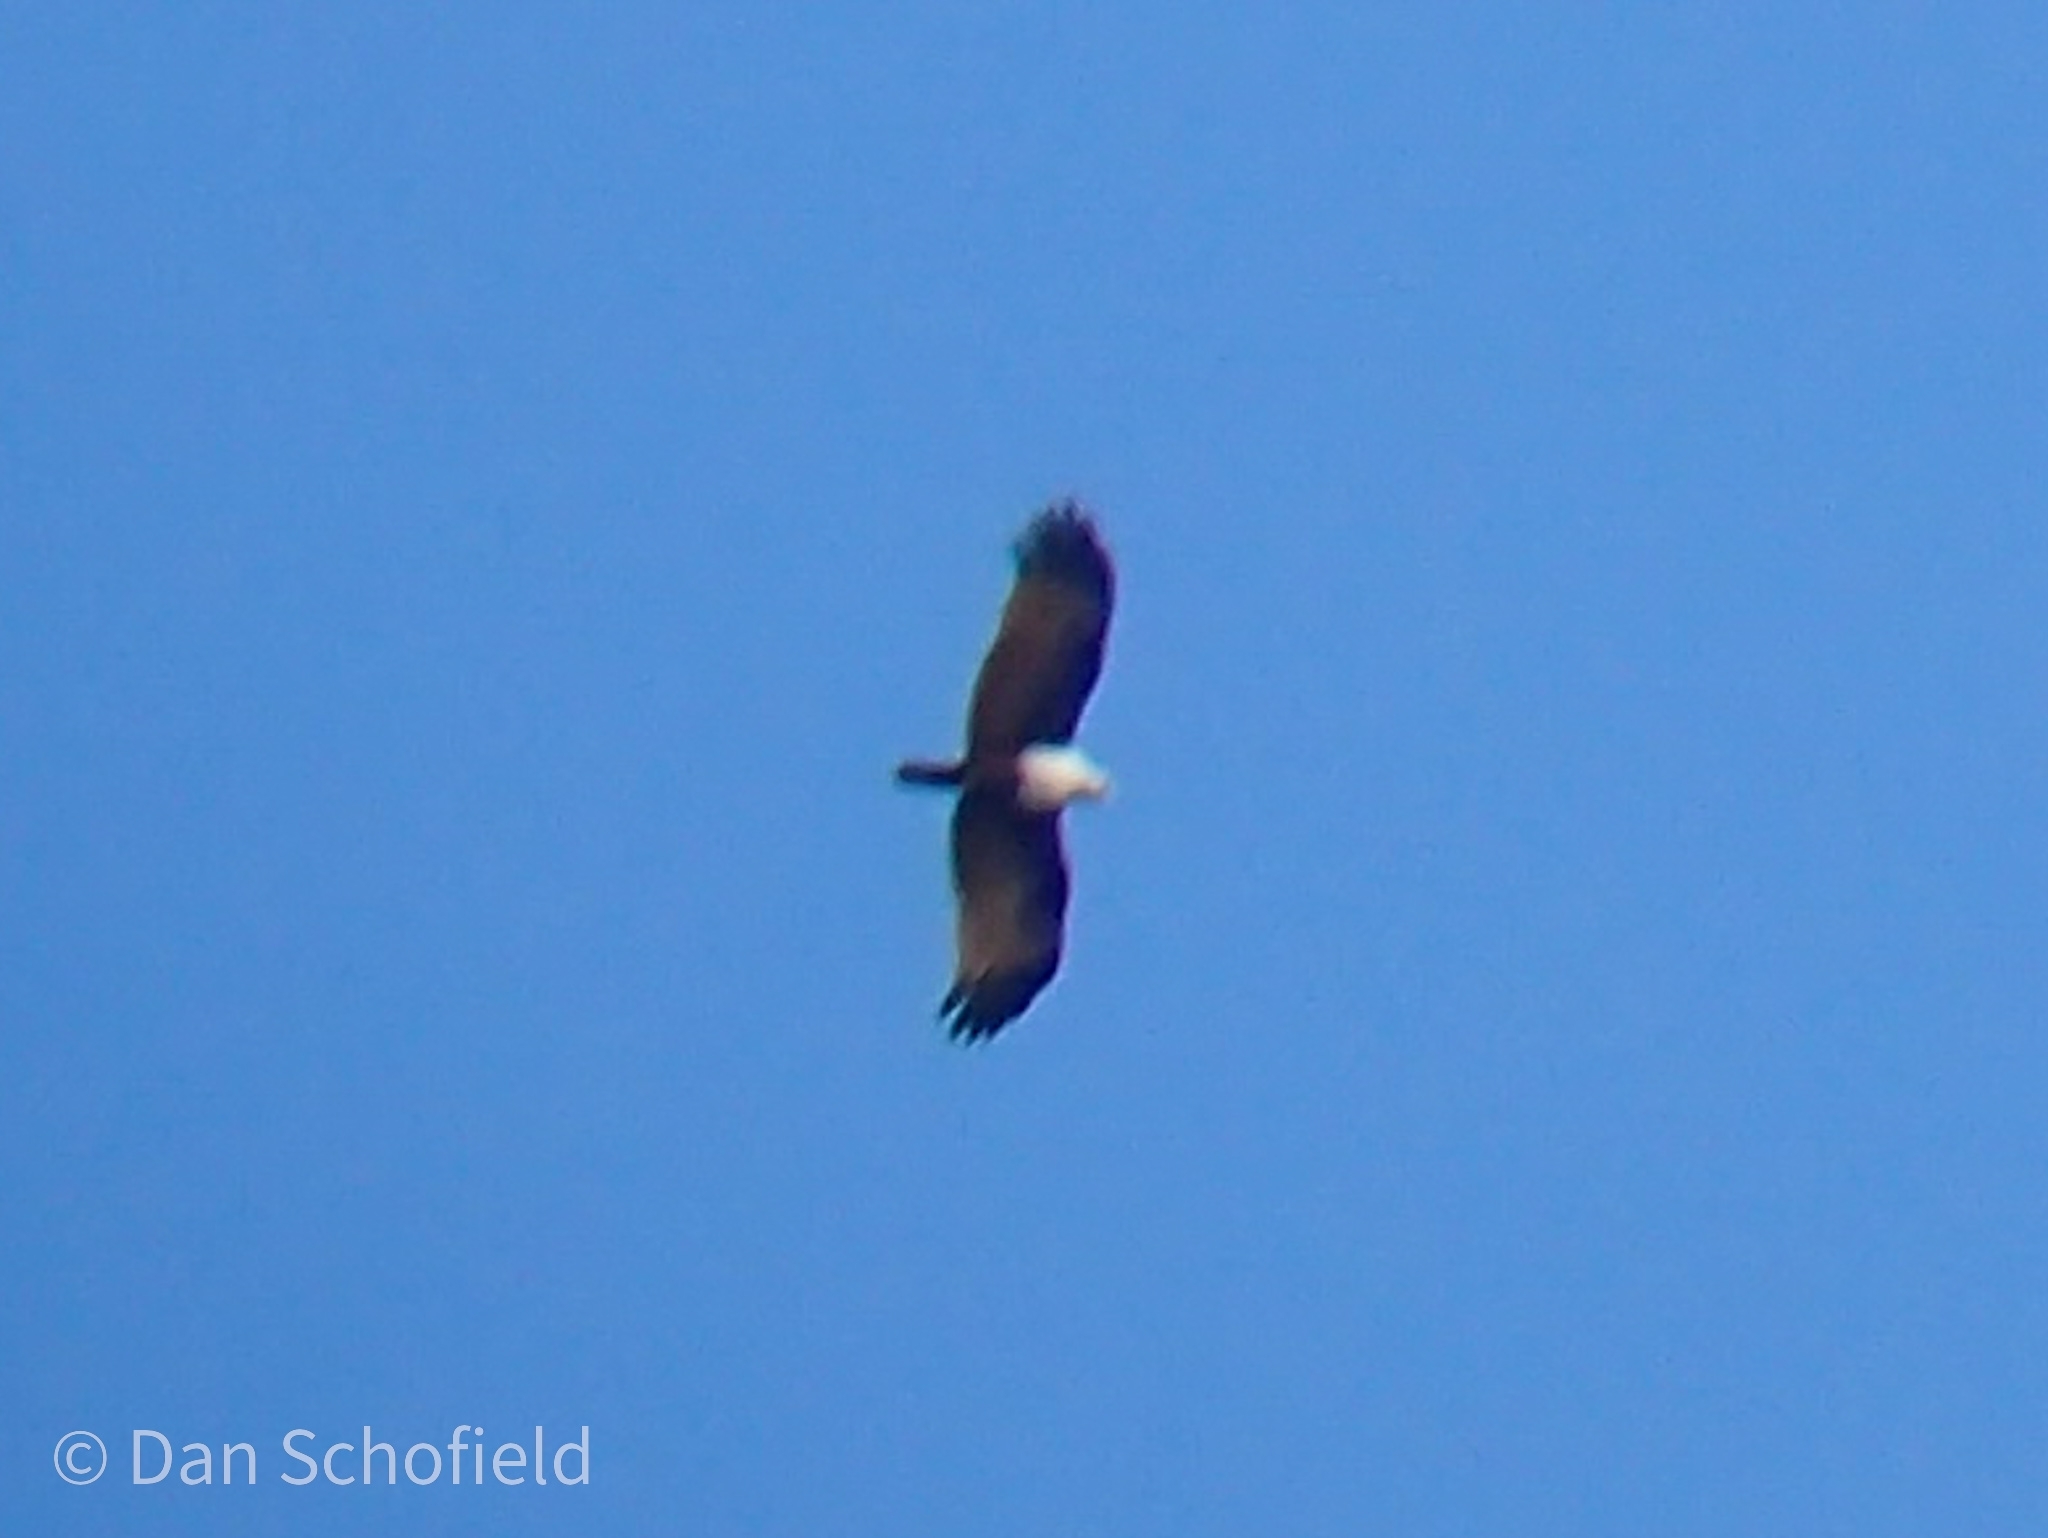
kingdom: Animalia
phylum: Chordata
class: Aves
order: Accipitriformes
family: Accipitridae
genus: Haliastur
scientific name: Haliastur indus
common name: Brahminy kite
